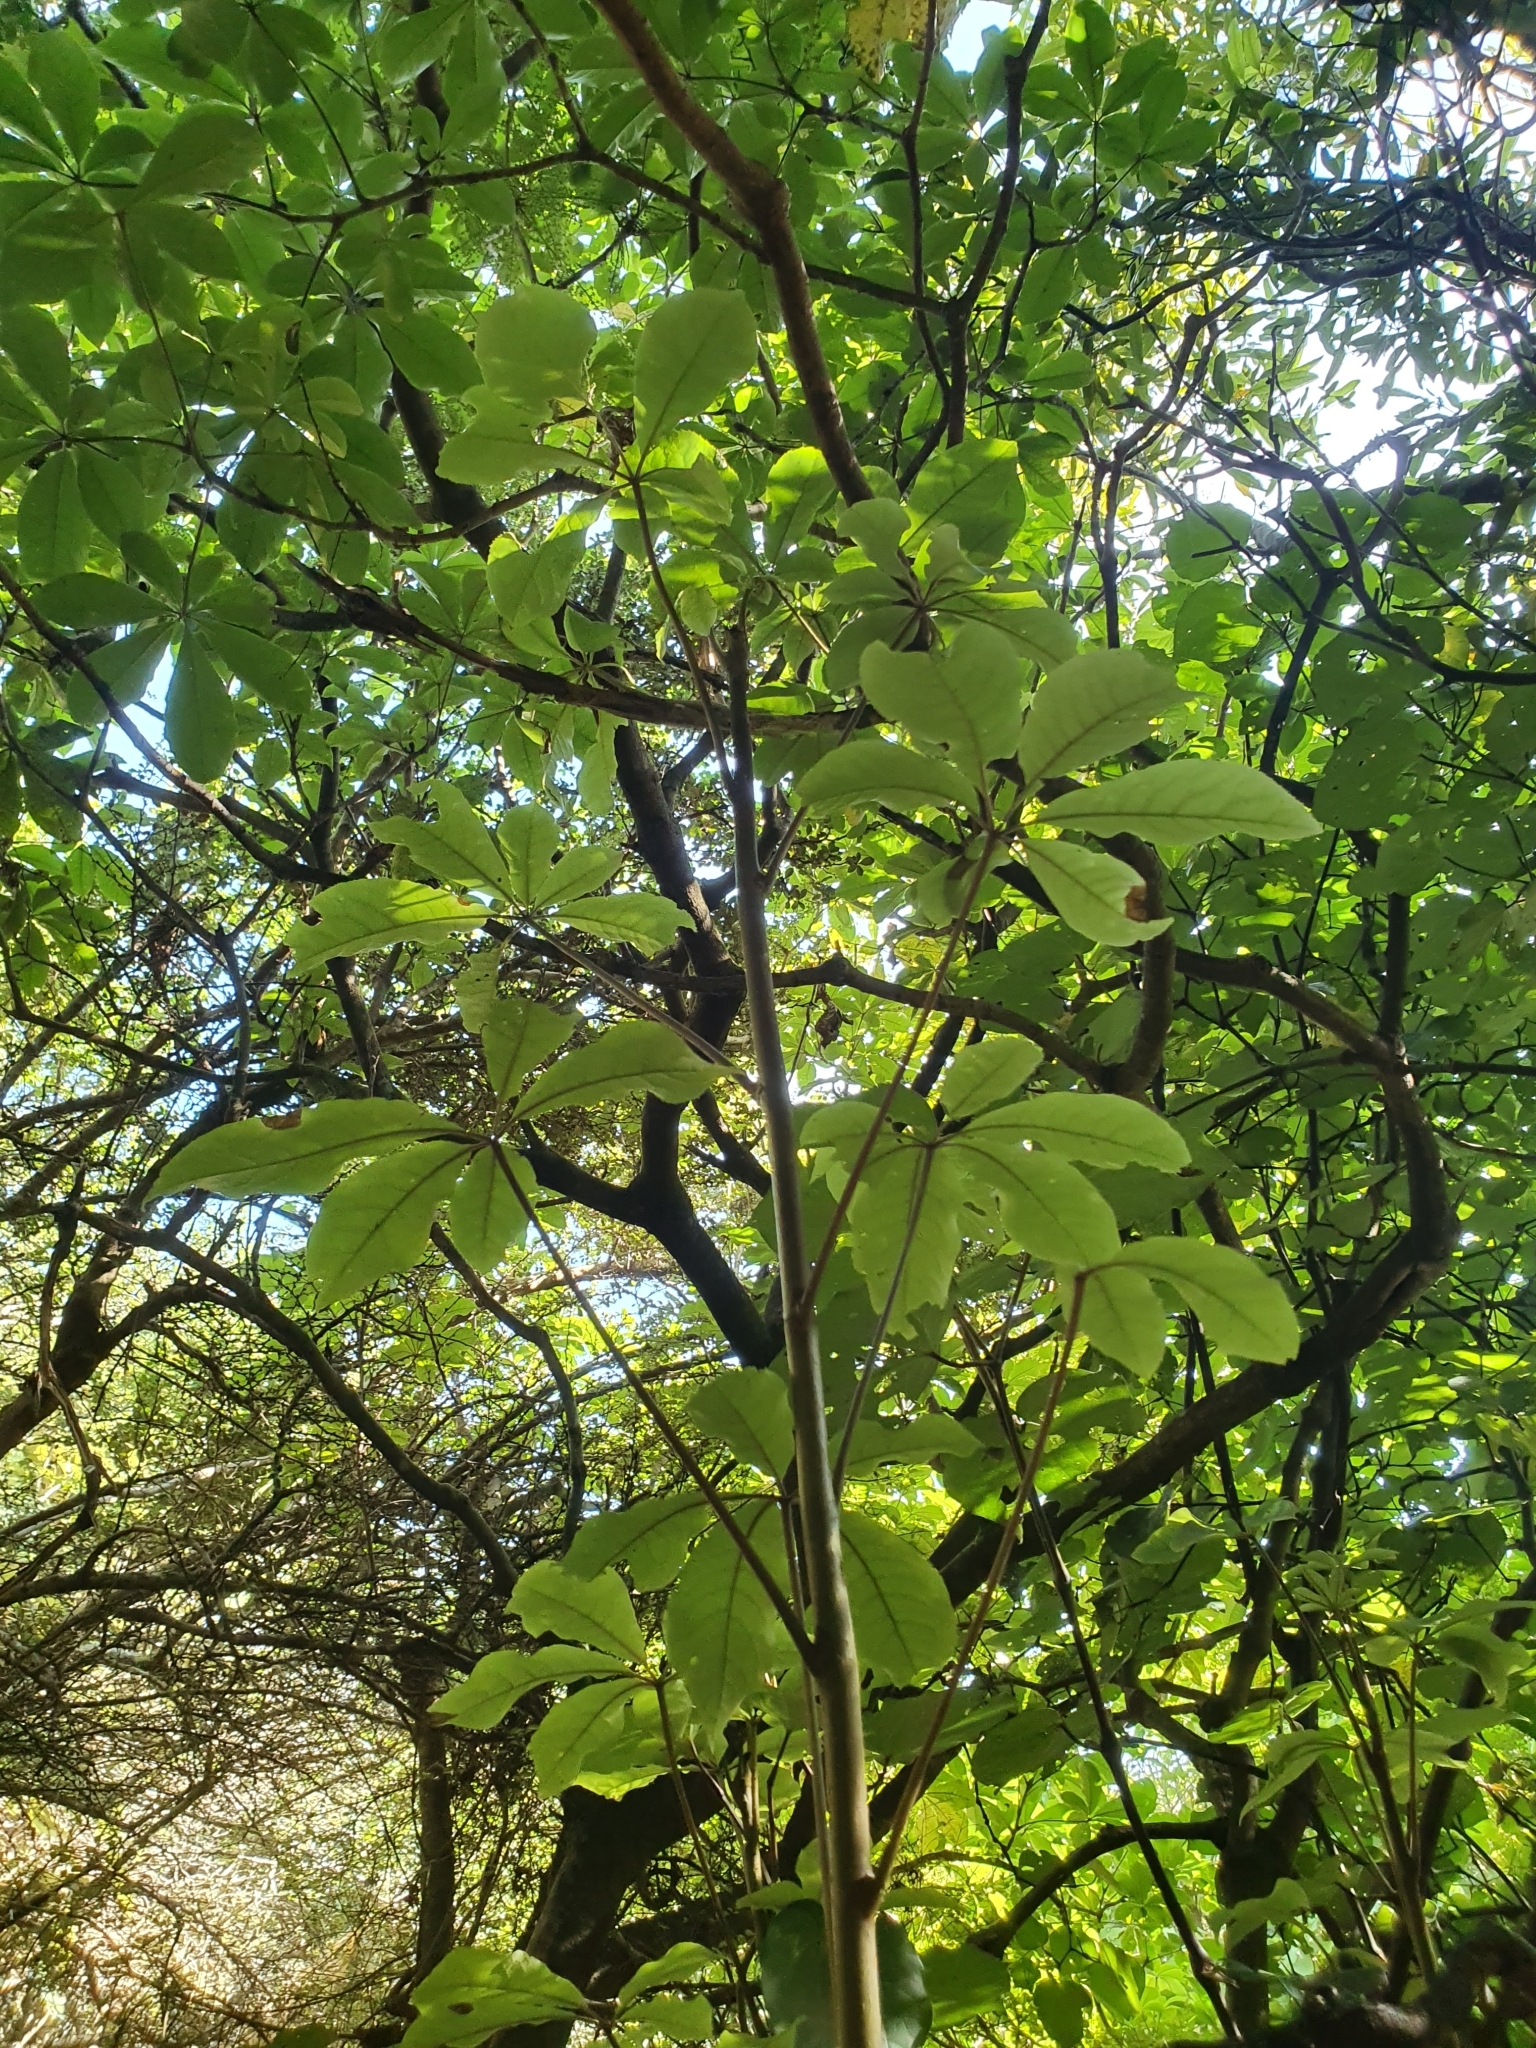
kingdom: Plantae
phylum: Tracheophyta
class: Magnoliopsida
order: Apiales
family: Araliaceae
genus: Schefflera
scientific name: Schefflera digitata
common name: Pate
